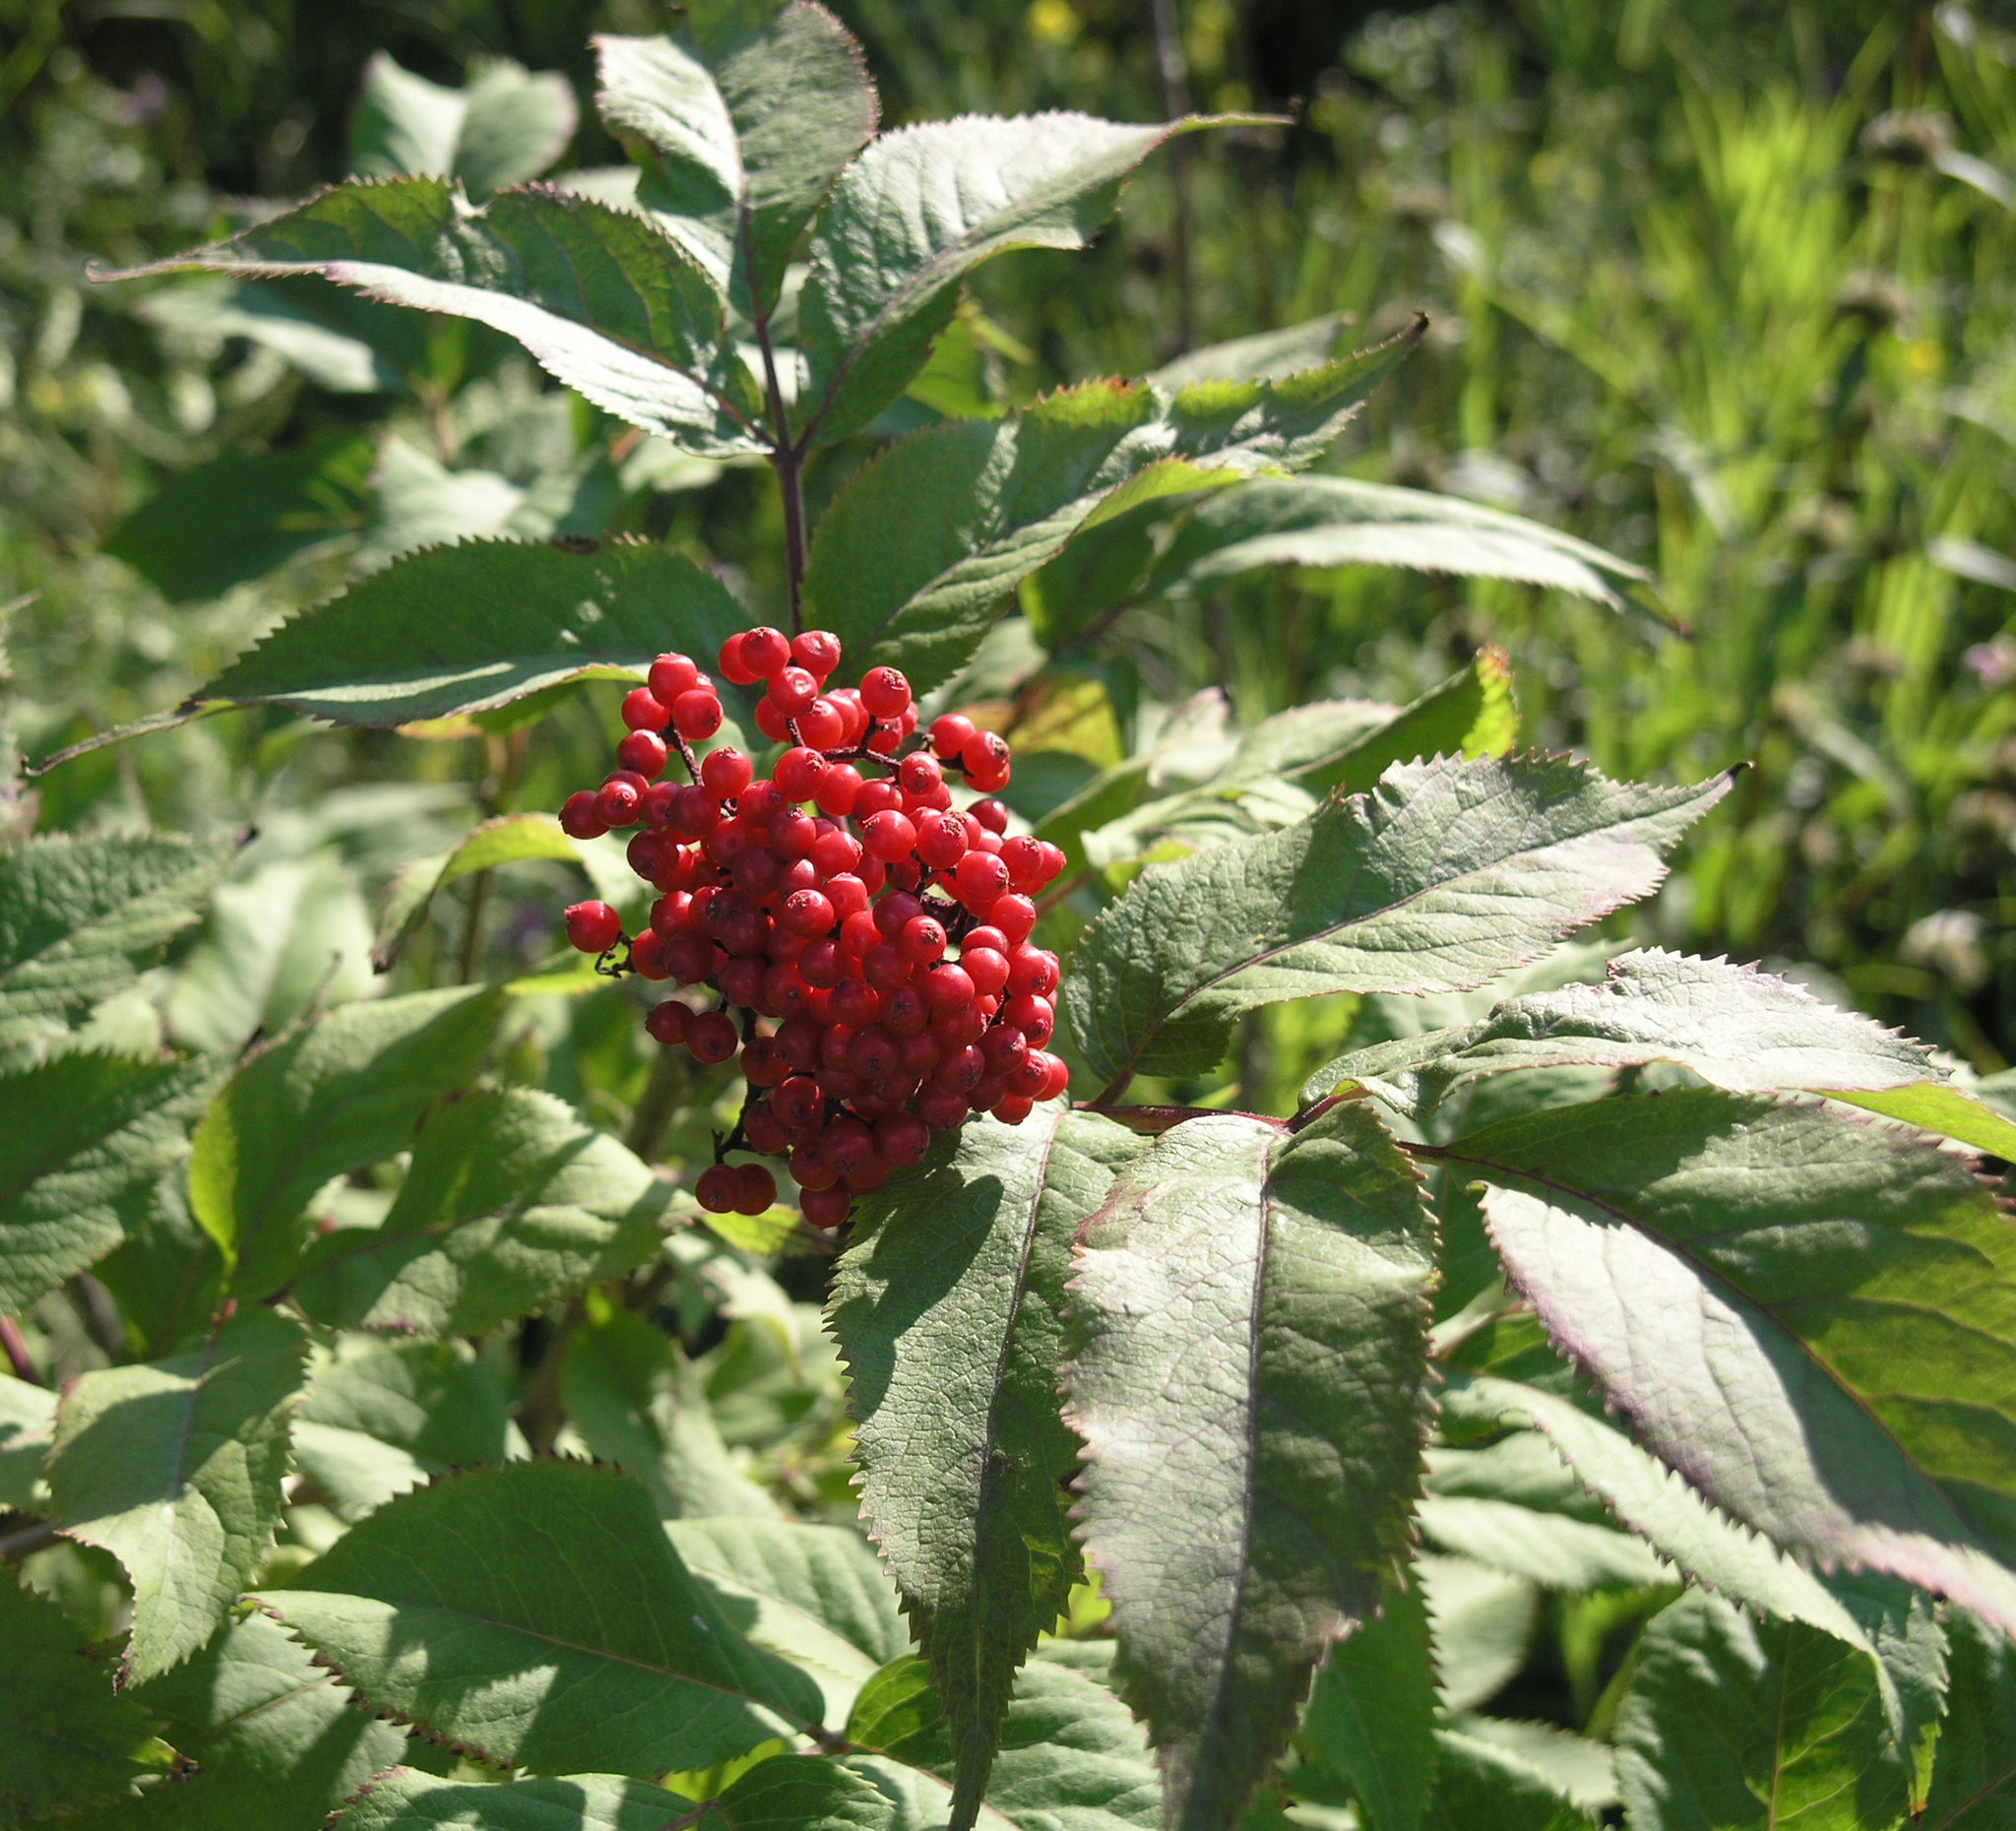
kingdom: Plantae
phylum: Tracheophyta
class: Magnoliopsida
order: Dipsacales
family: Viburnaceae
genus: Sambucus
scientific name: Sambucus racemosa
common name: Red-berried elder
